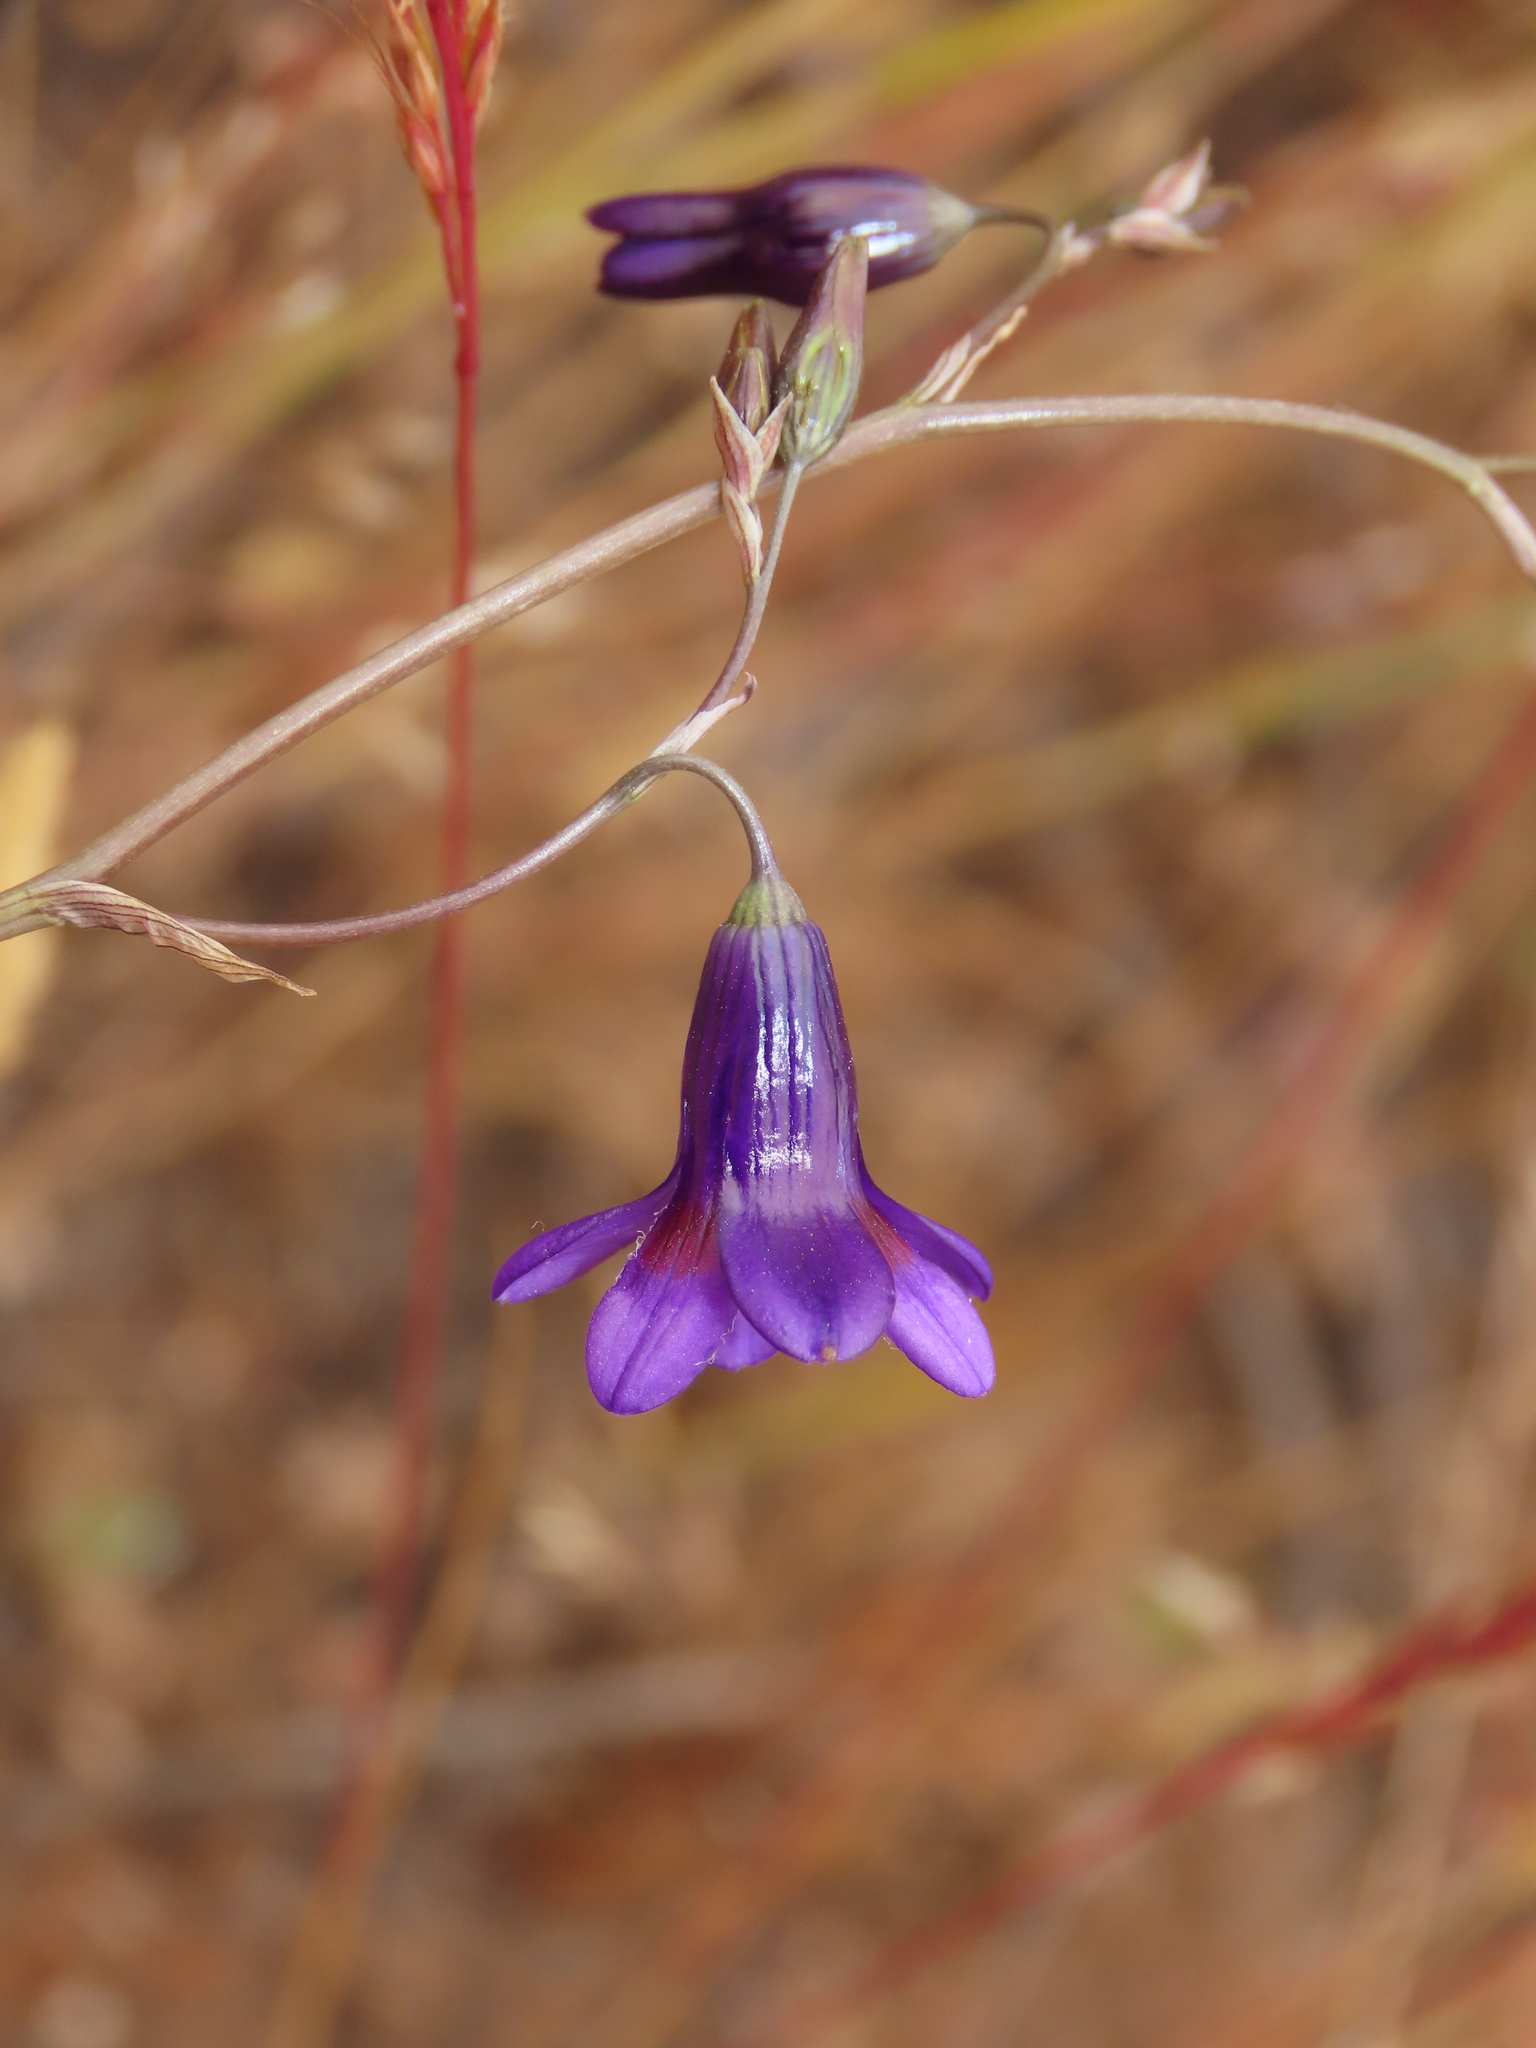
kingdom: Plantae
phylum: Tracheophyta
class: Liliopsida
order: Asparagales
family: Tecophilaeaceae
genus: Conanthera
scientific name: Conanthera campanulata
